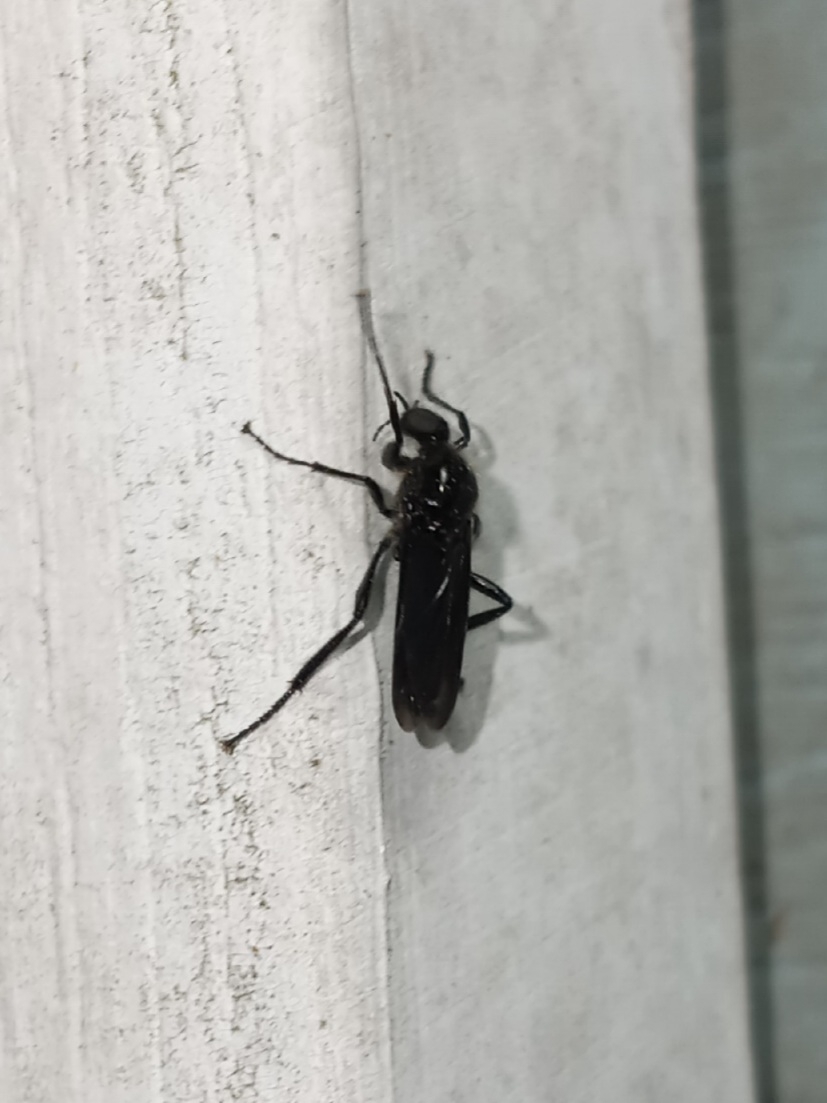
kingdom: Animalia
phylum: Arthropoda
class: Insecta
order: Diptera
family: Bibionidae
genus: Bibio
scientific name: Bibio superfluus
